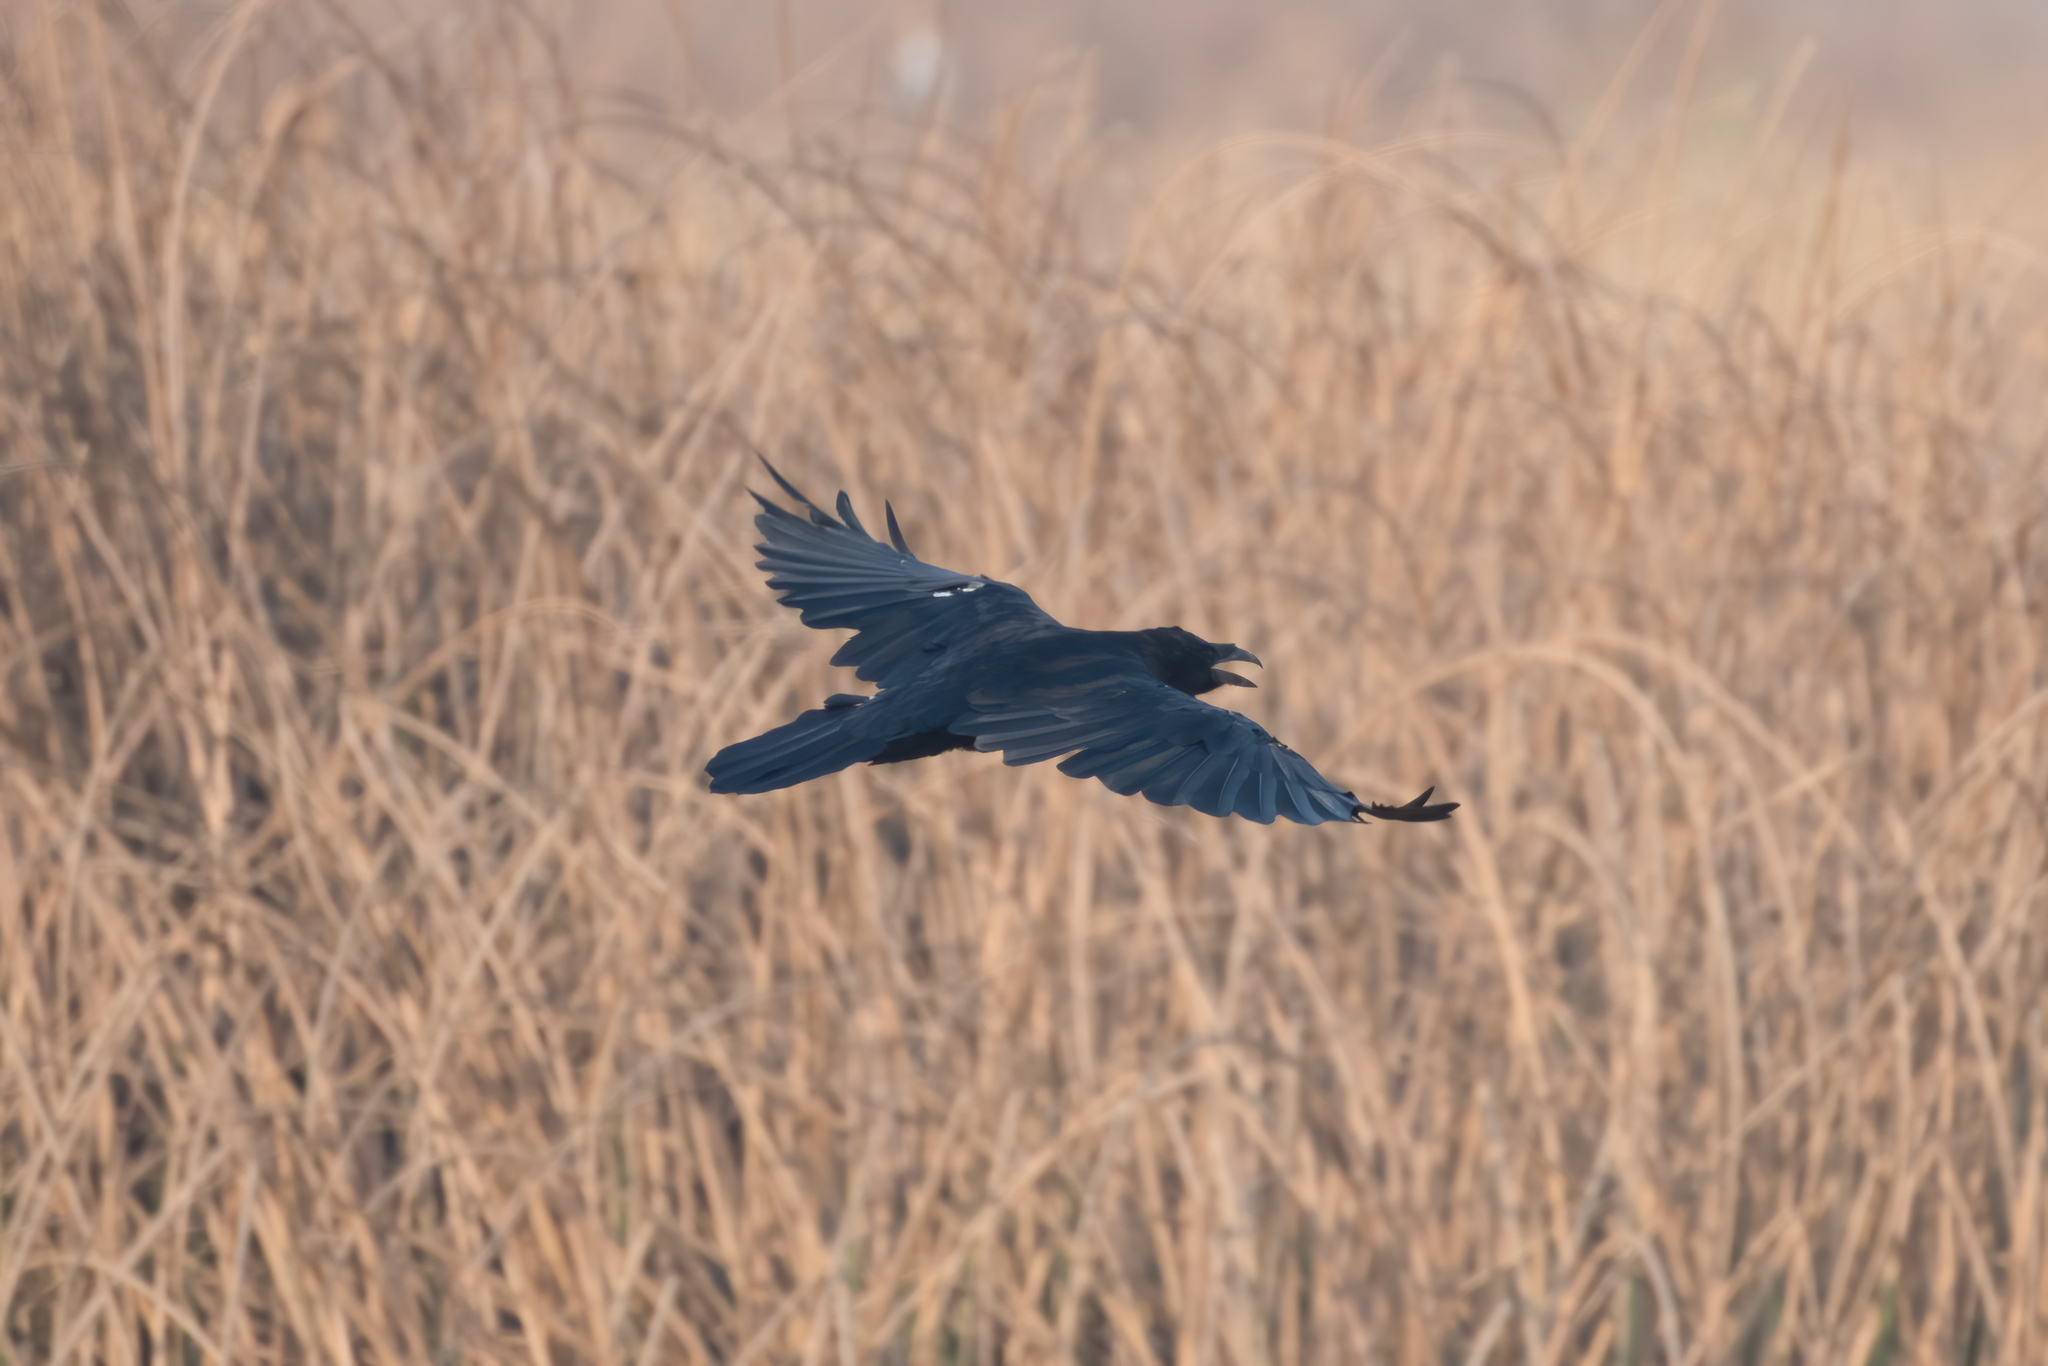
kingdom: Animalia
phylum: Chordata
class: Aves
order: Passeriformes
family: Corvidae
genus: Corvus
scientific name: Corvus corax
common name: Common raven
